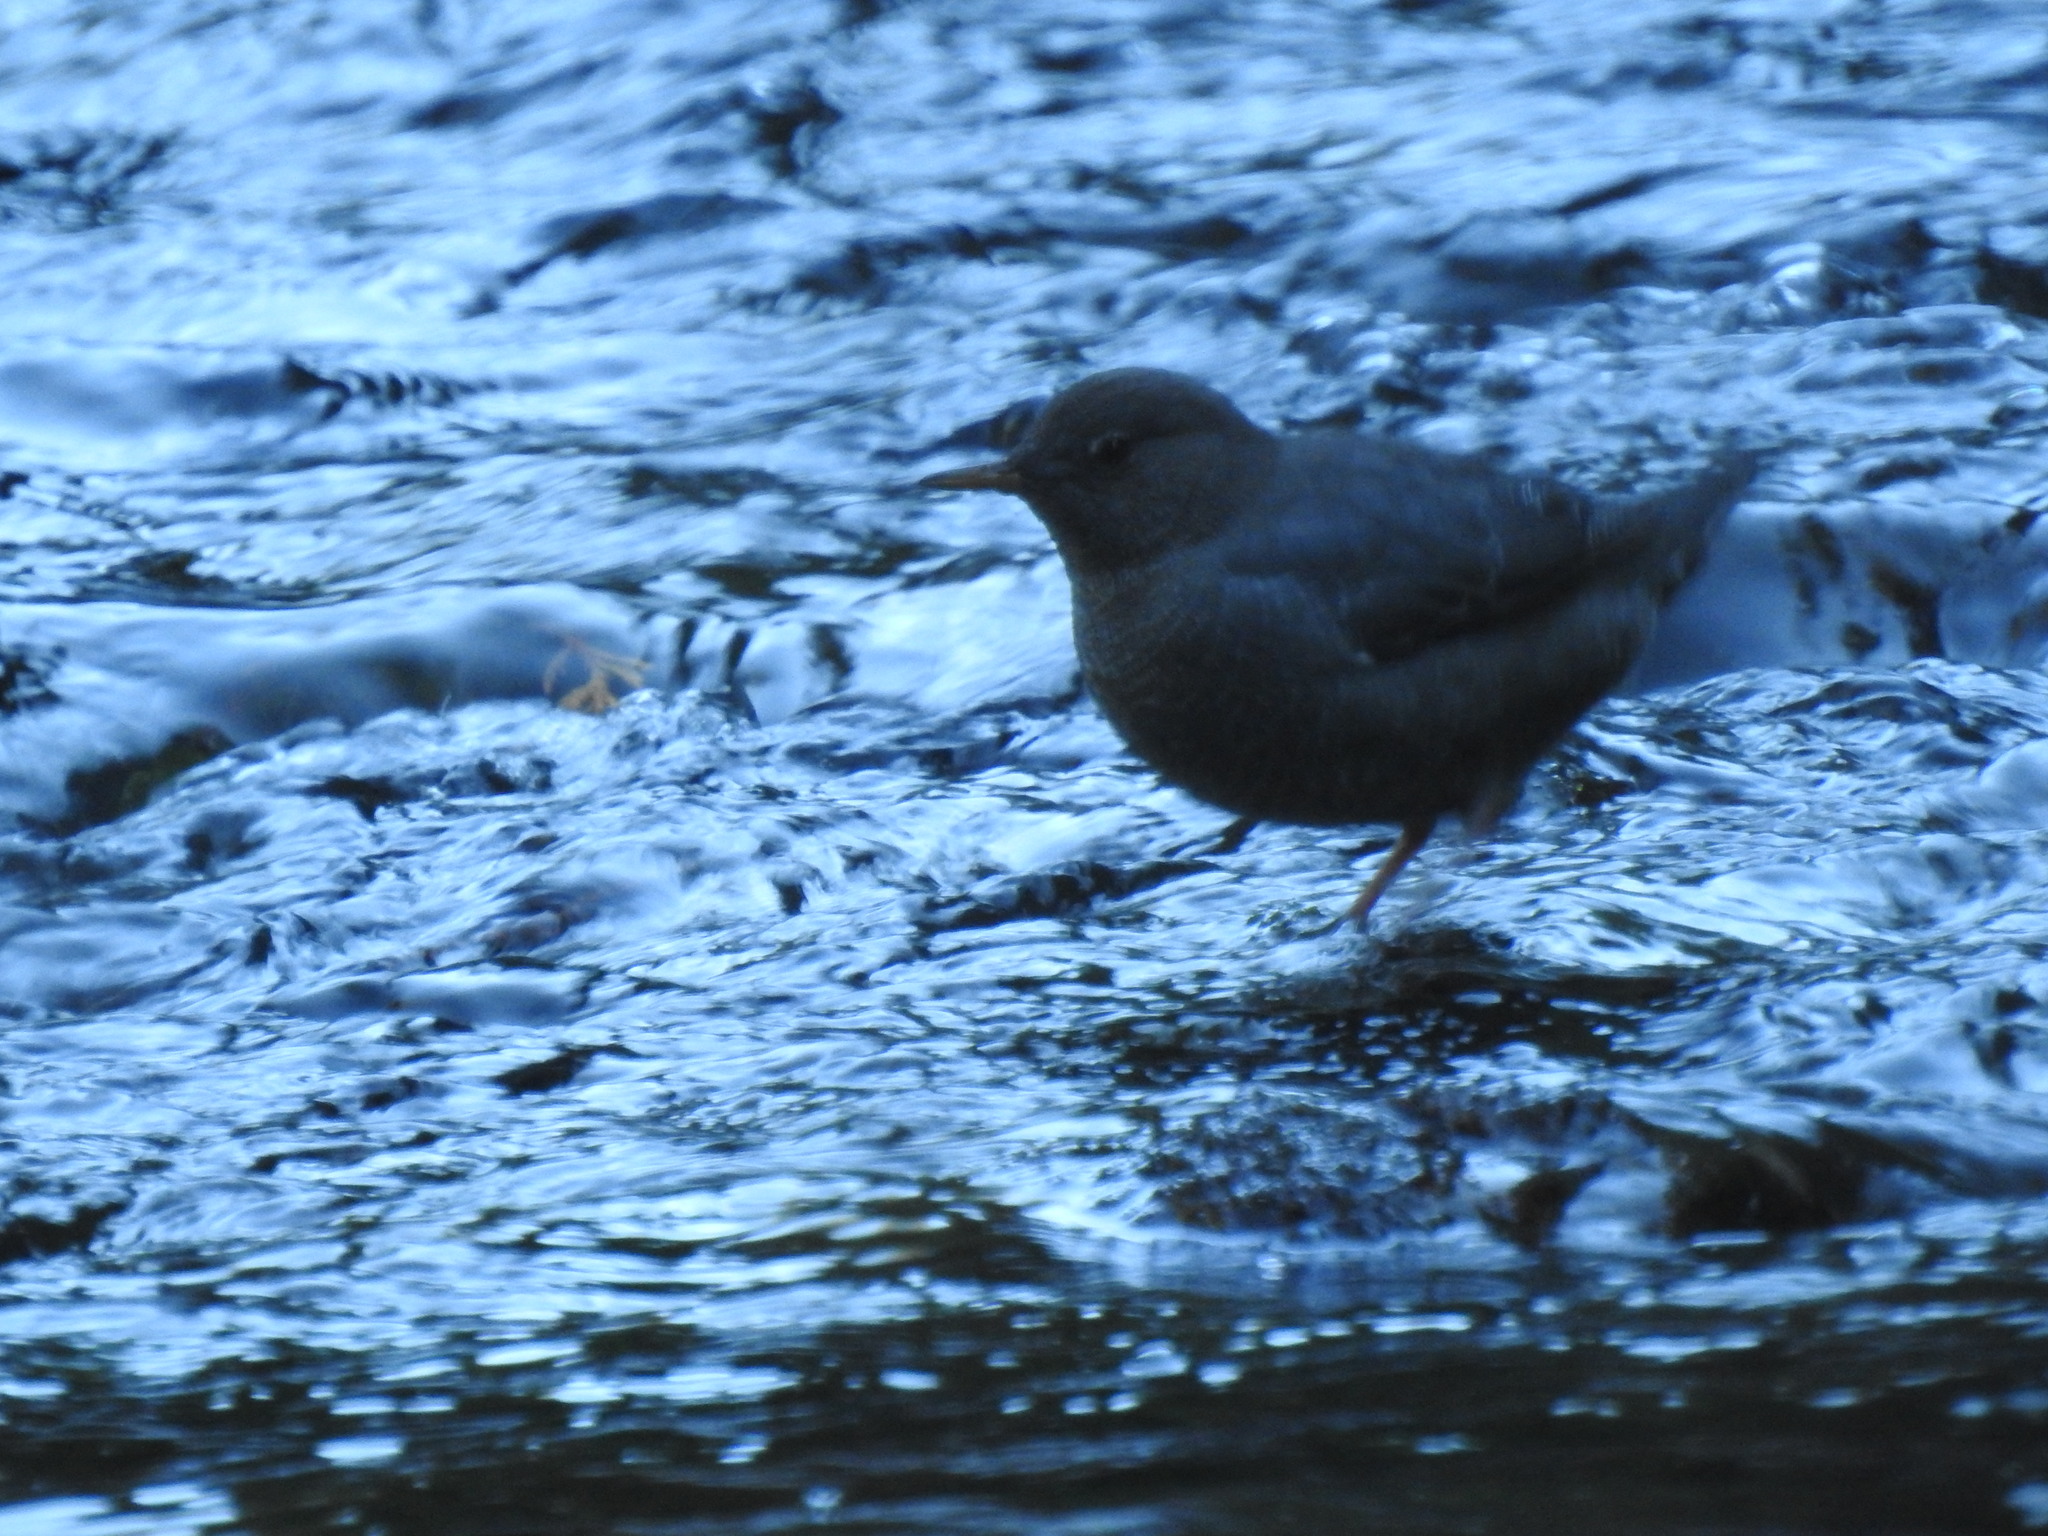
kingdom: Animalia
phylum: Chordata
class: Aves
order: Passeriformes
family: Cinclidae
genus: Cinclus
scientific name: Cinclus mexicanus
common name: American dipper
